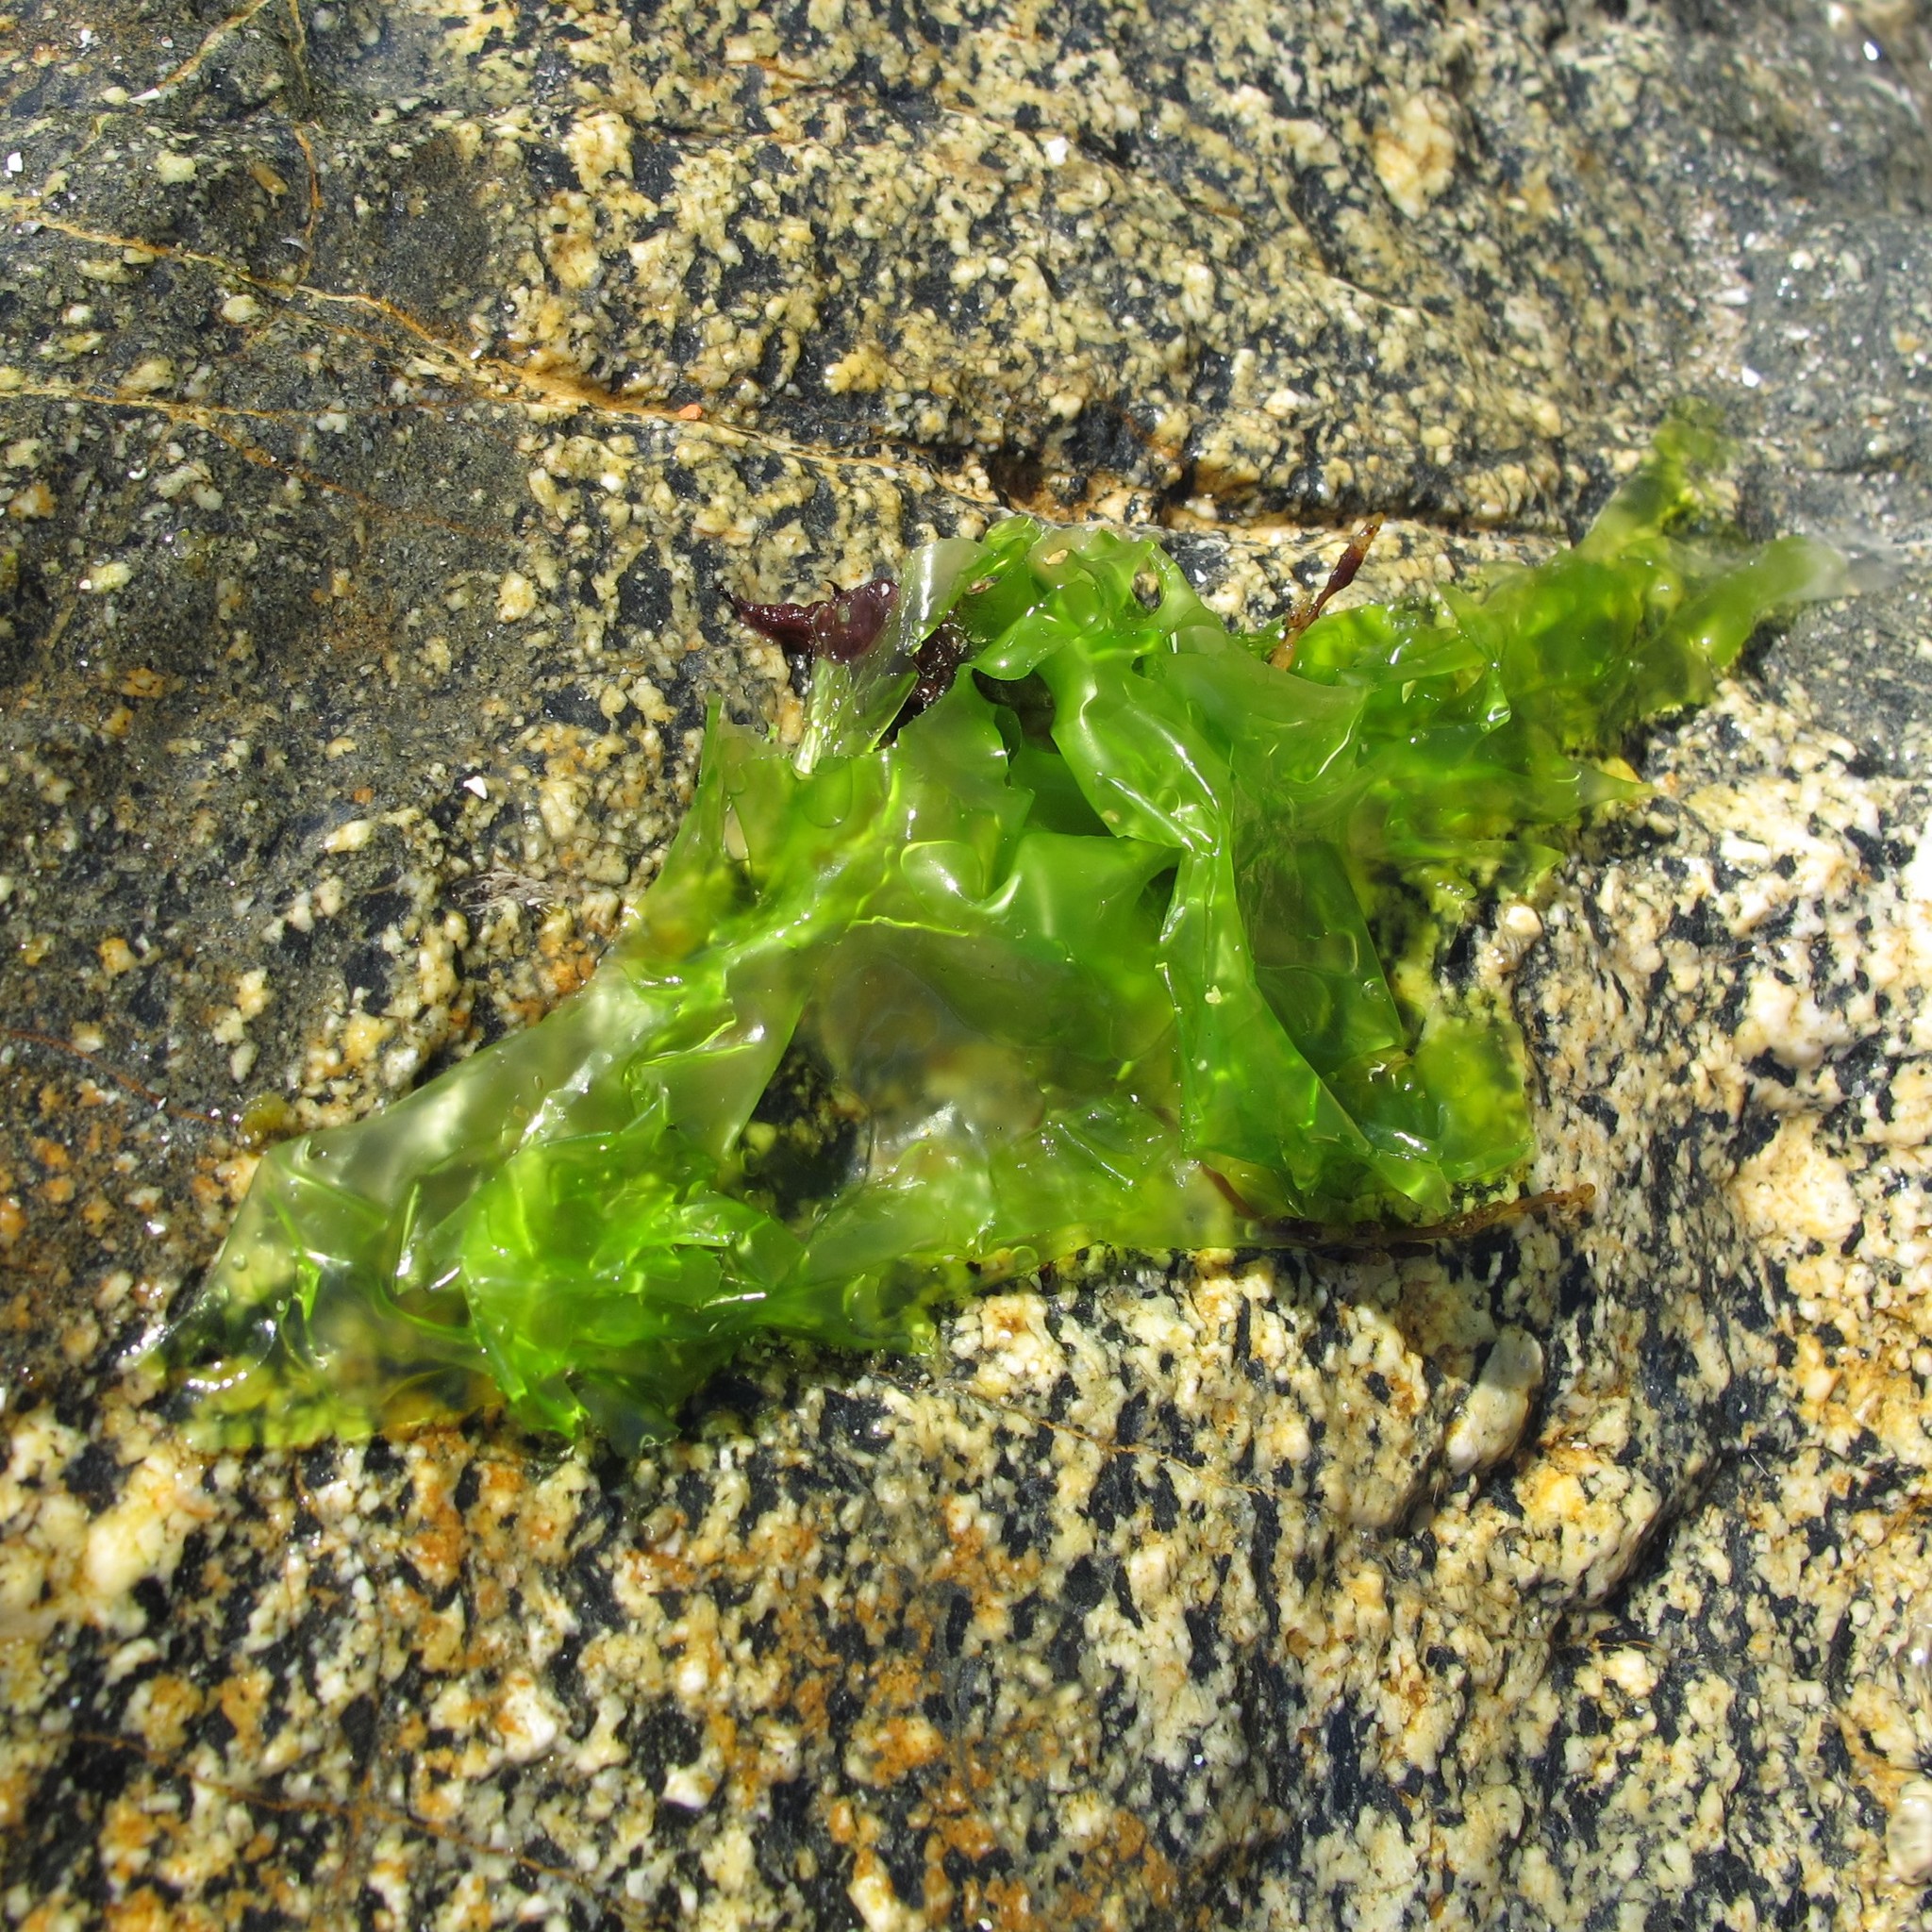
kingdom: Plantae
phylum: Chlorophyta
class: Ulvophyceae
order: Ulvales
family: Ulvaceae
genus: Ulva
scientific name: Ulva lactuca
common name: Sea lettuce
